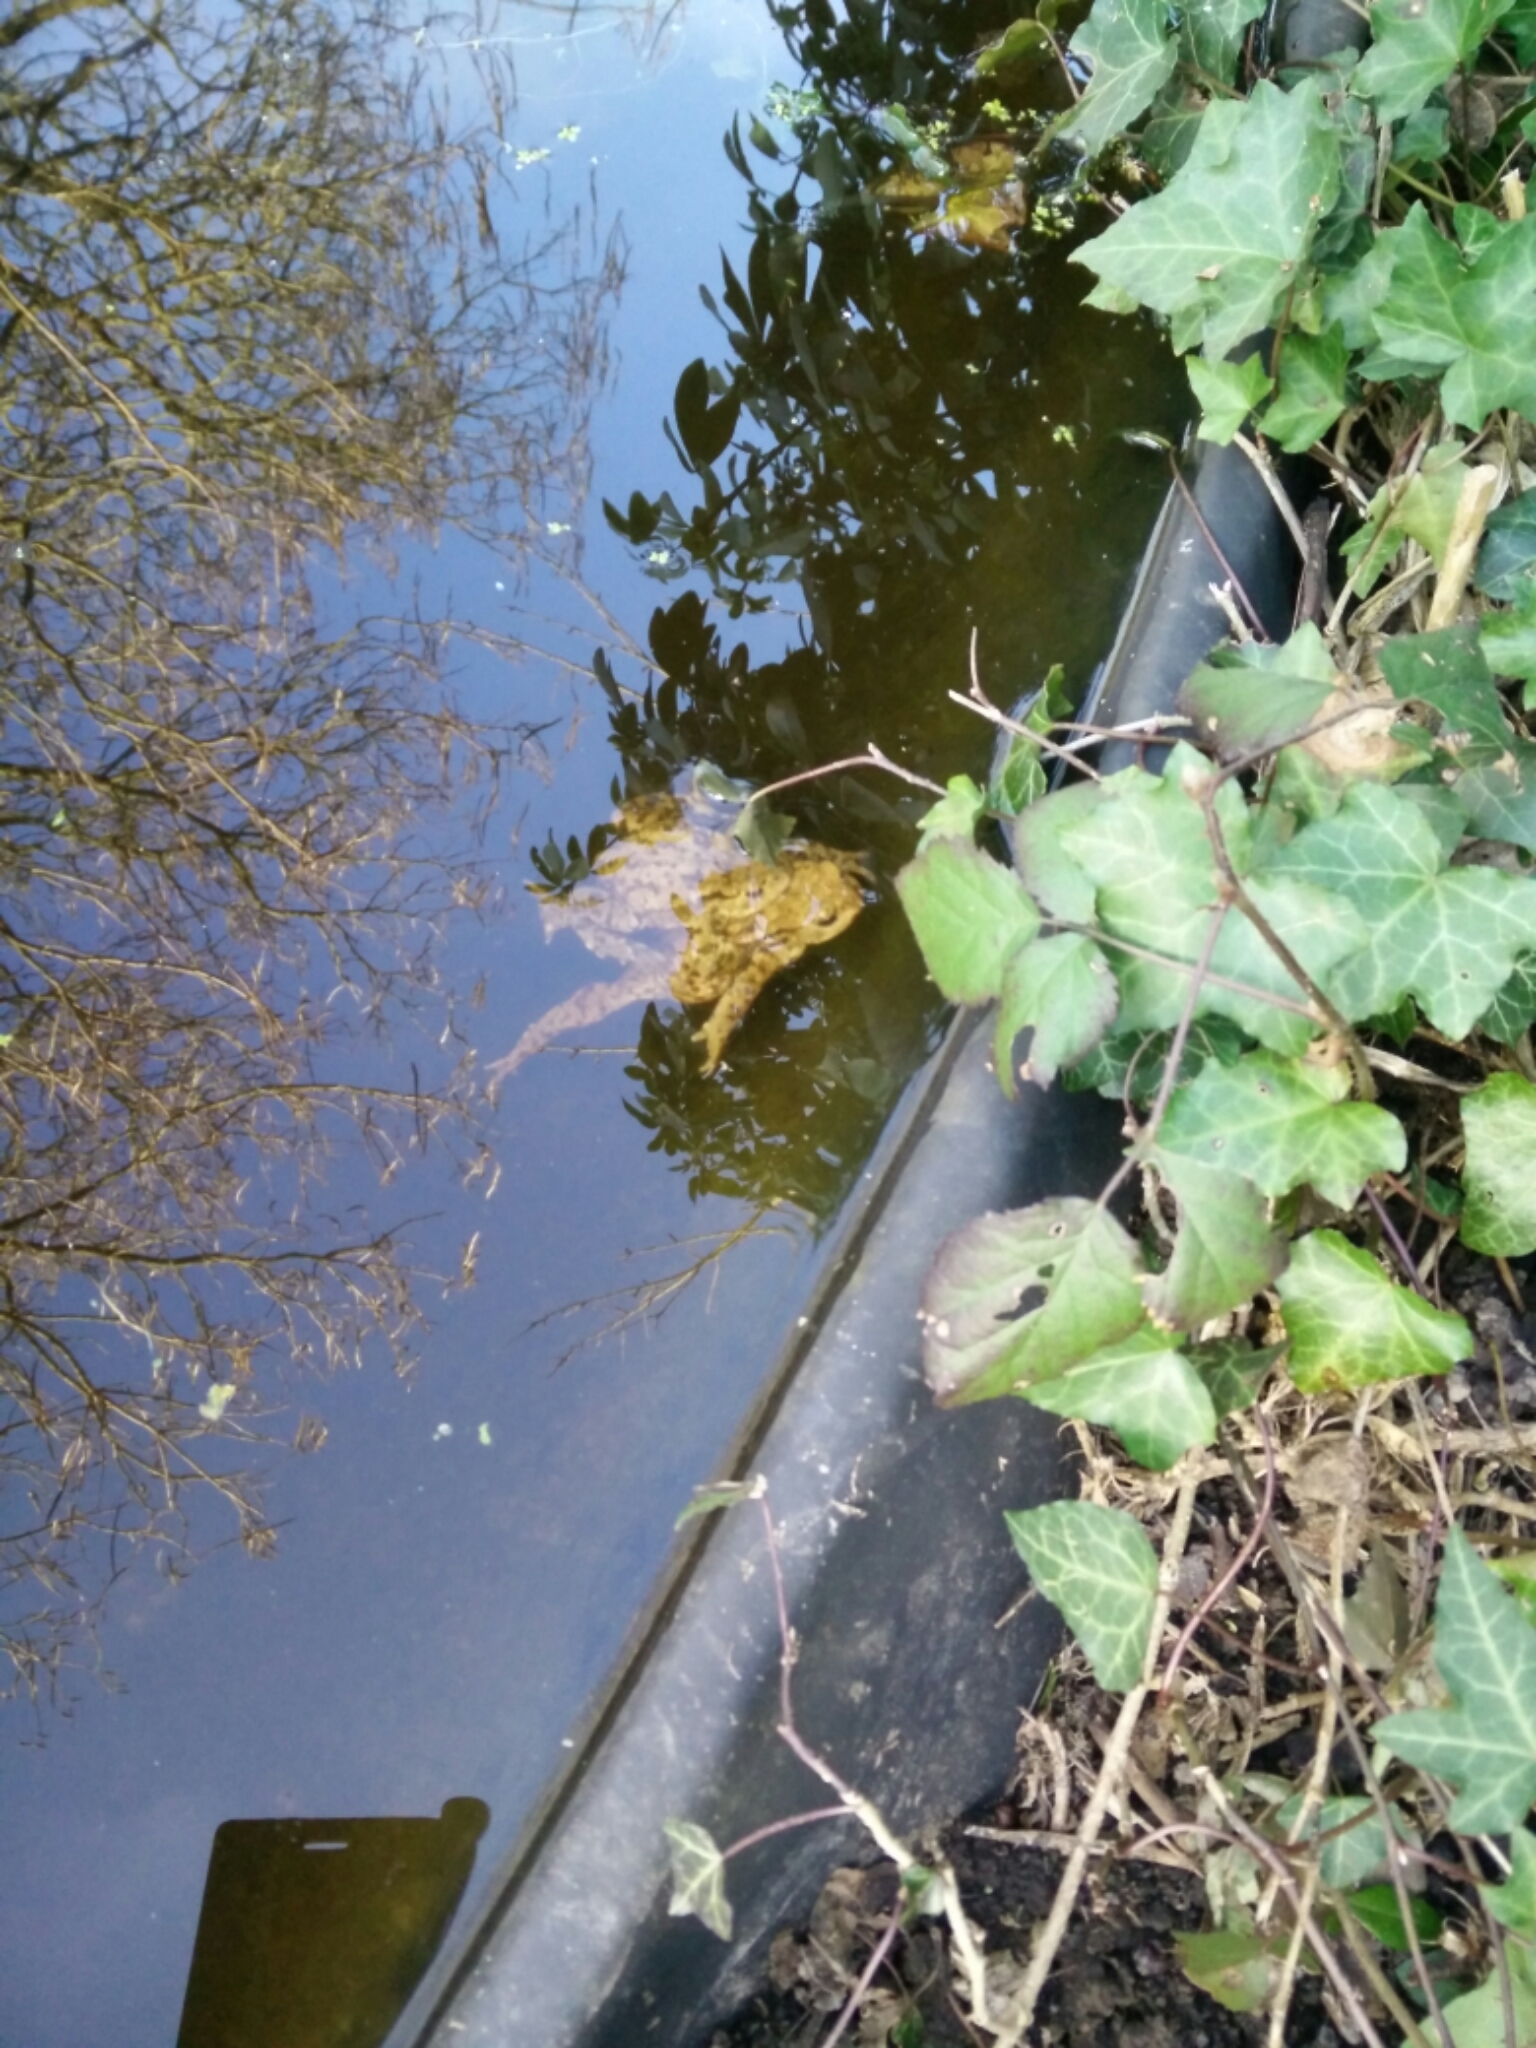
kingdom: Animalia
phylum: Chordata
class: Amphibia
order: Anura
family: Bufonidae
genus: Bufo
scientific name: Bufo bufo
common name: Common toad
